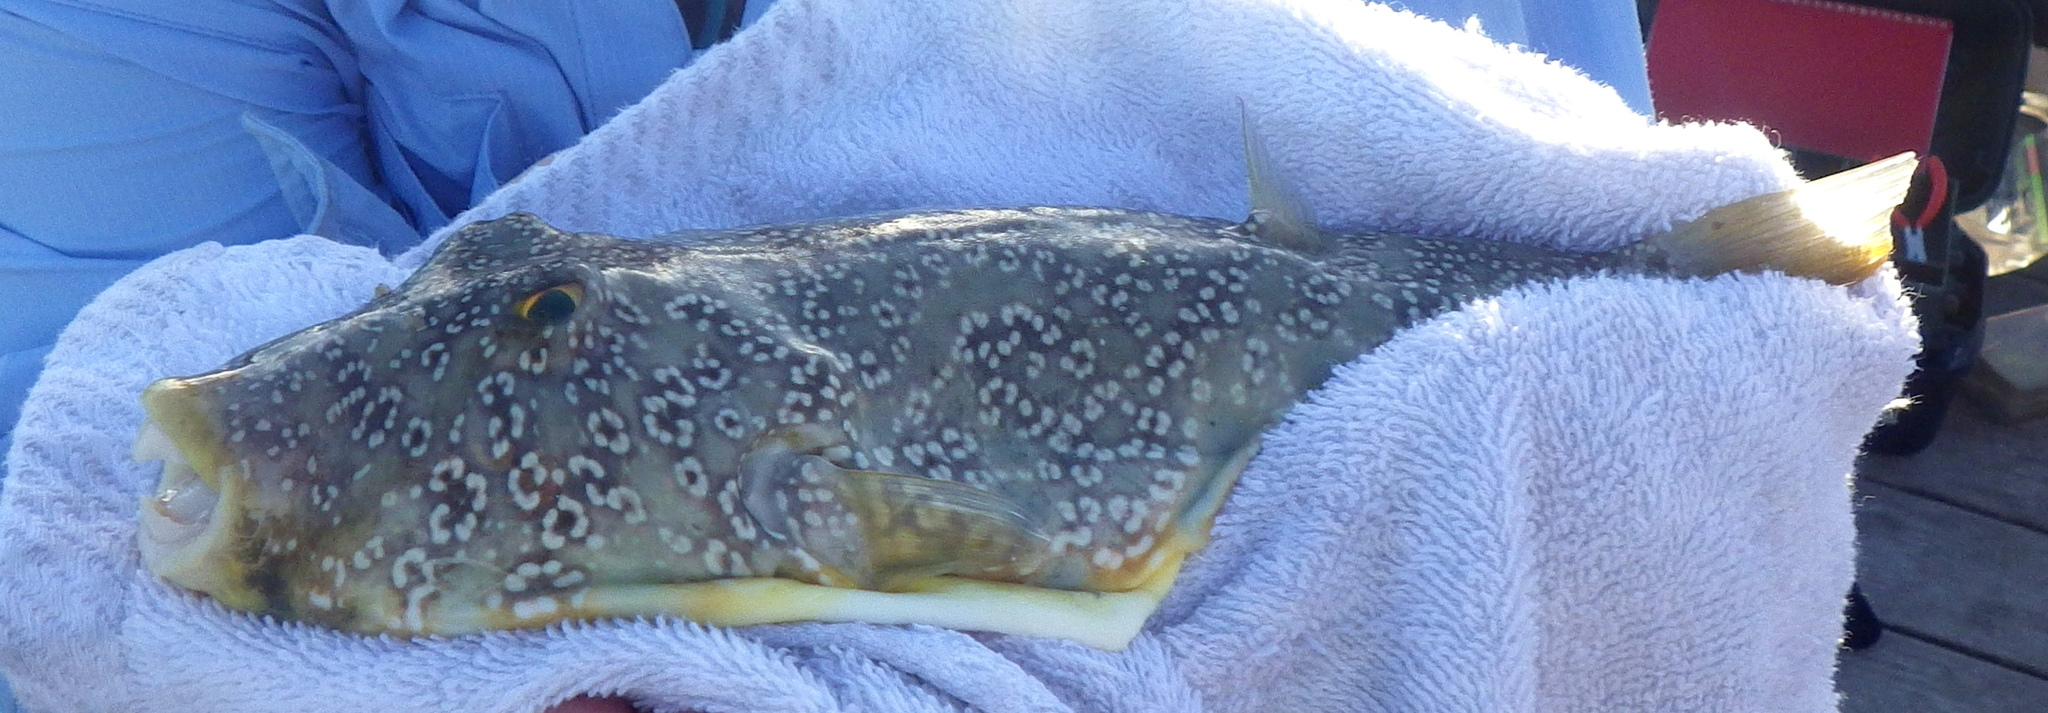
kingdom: Animalia
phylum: Chordata
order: Tetraodontiformes
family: Tetraodontidae
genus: Sphoeroides
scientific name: Sphoeroides nephelus
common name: Southern puffer
